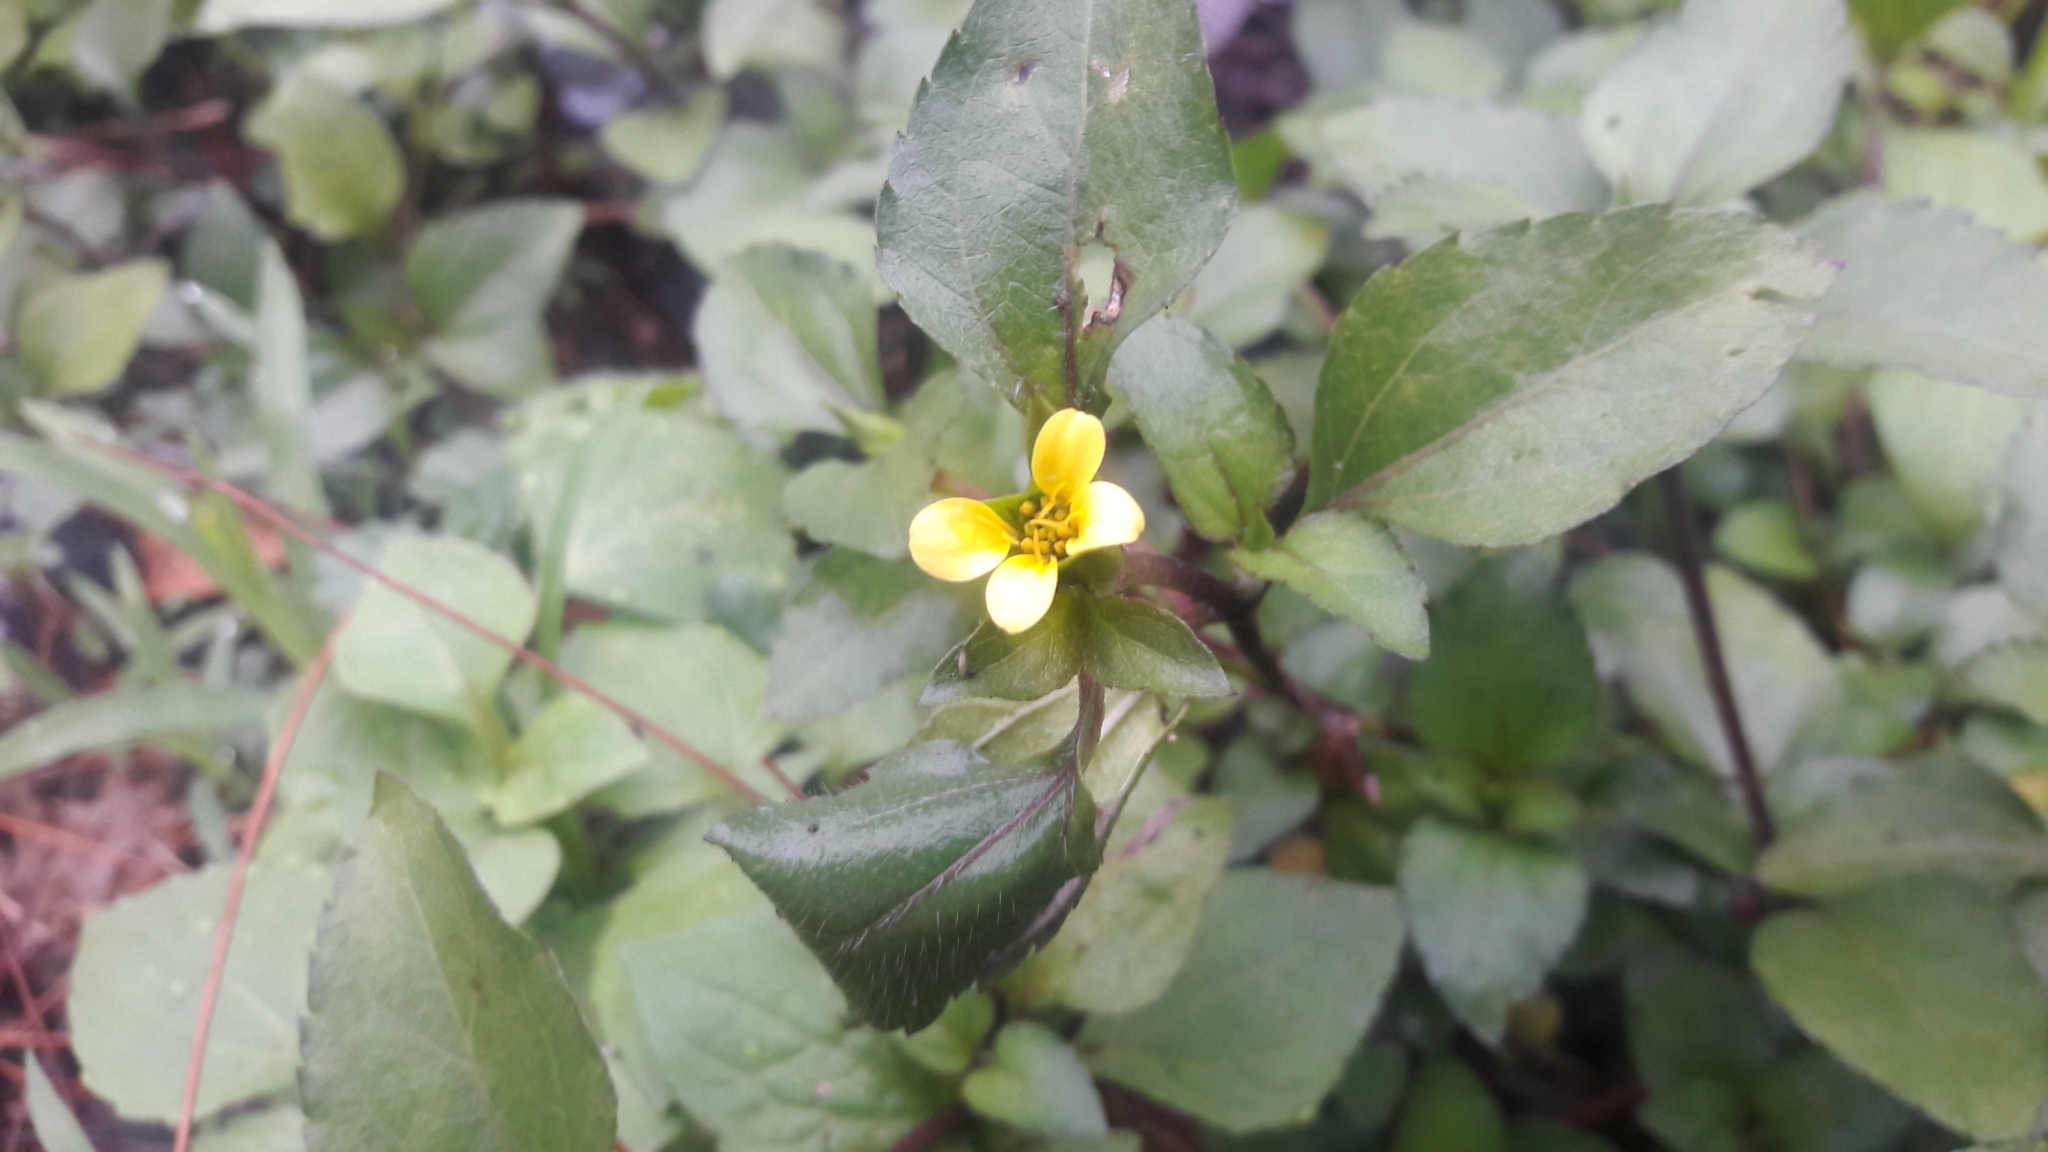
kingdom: Plantae
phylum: Tracheophyta
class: Magnoliopsida
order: Asterales
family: Asteraceae
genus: Calyptocarpus
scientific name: Calyptocarpus vialis
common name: Straggler daisy
